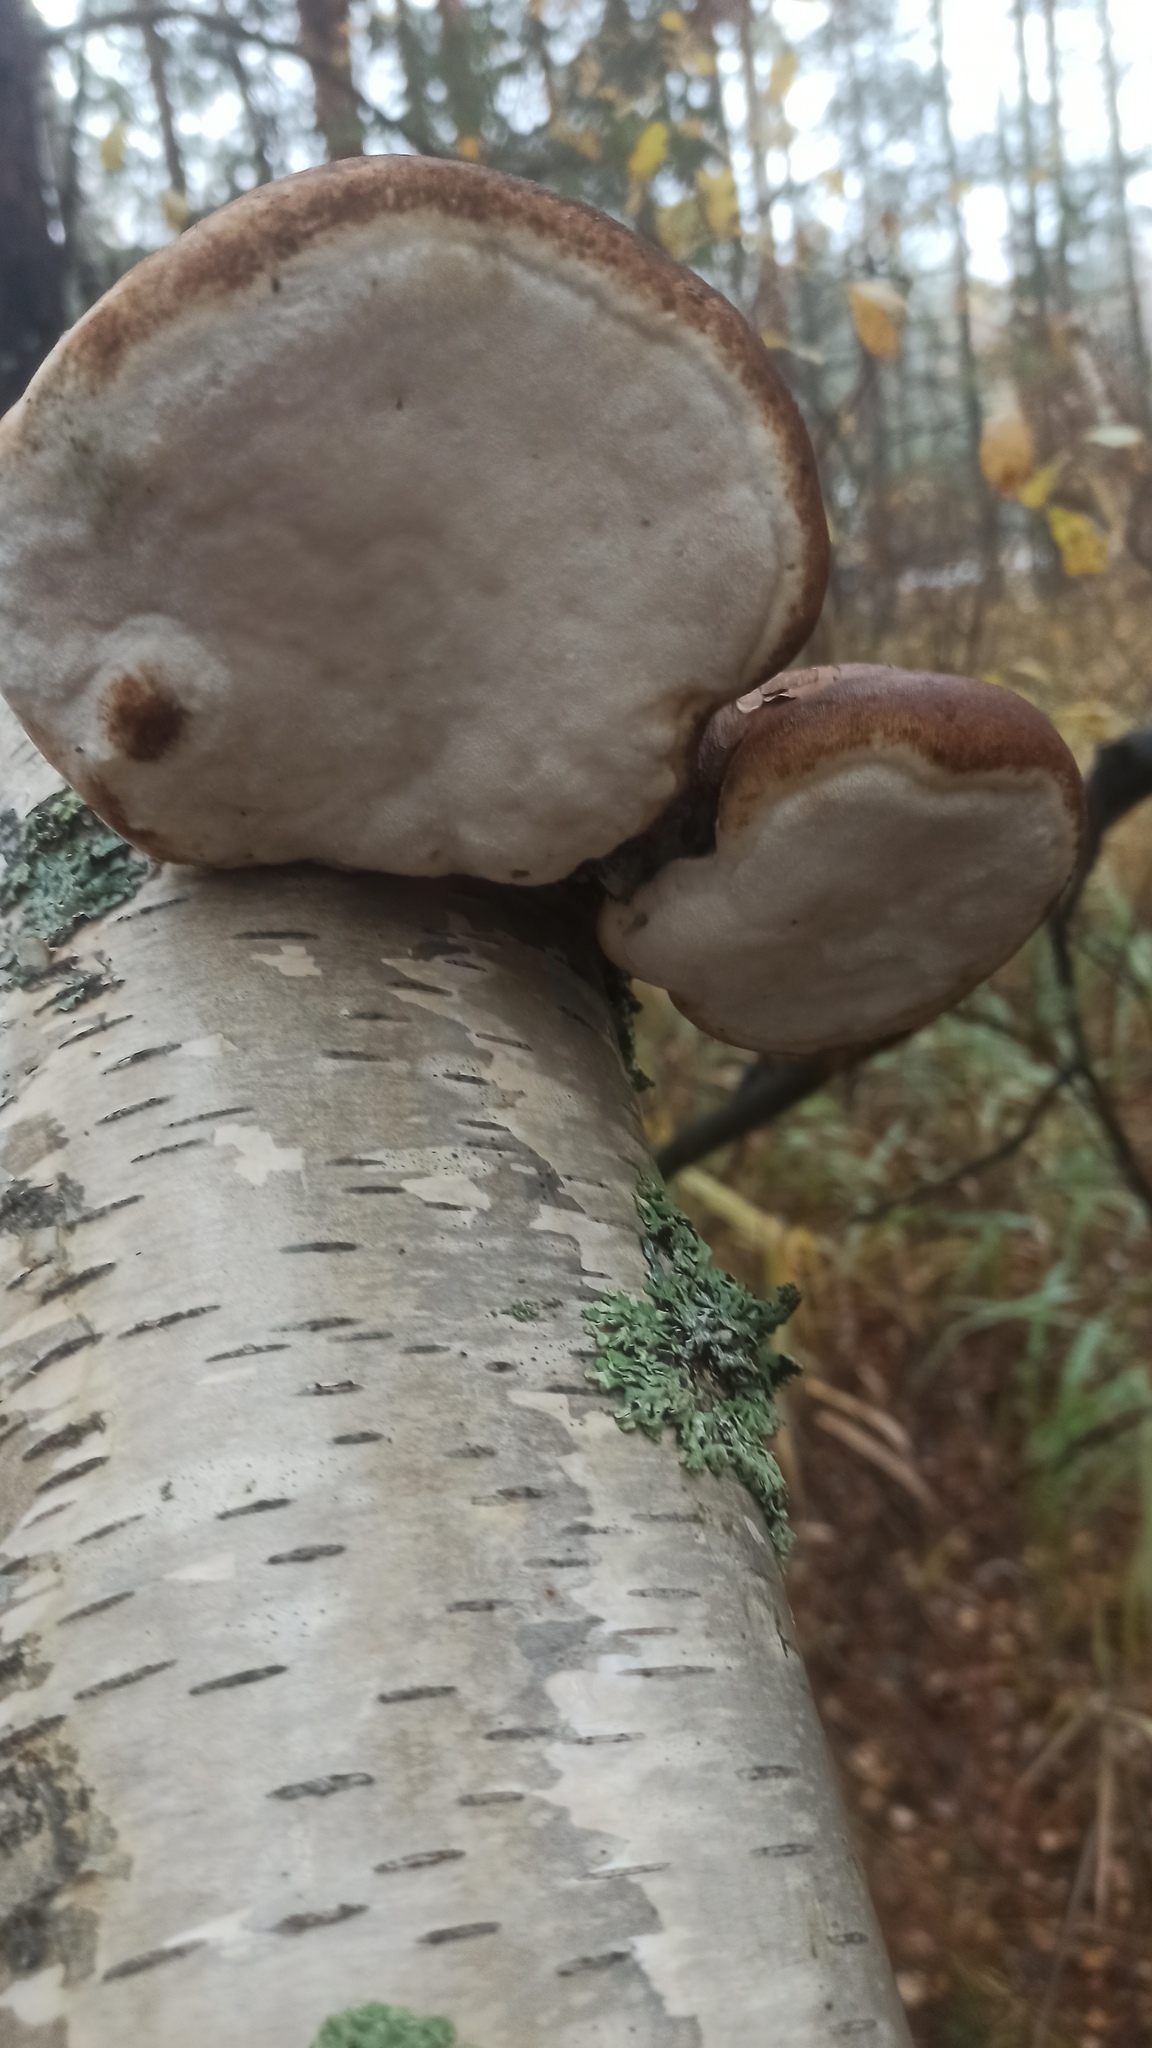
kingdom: Fungi
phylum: Basidiomycota
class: Agaricomycetes
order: Polyporales
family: Fomitopsidaceae
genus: Fomitopsis
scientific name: Fomitopsis betulina
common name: Birch polypore
